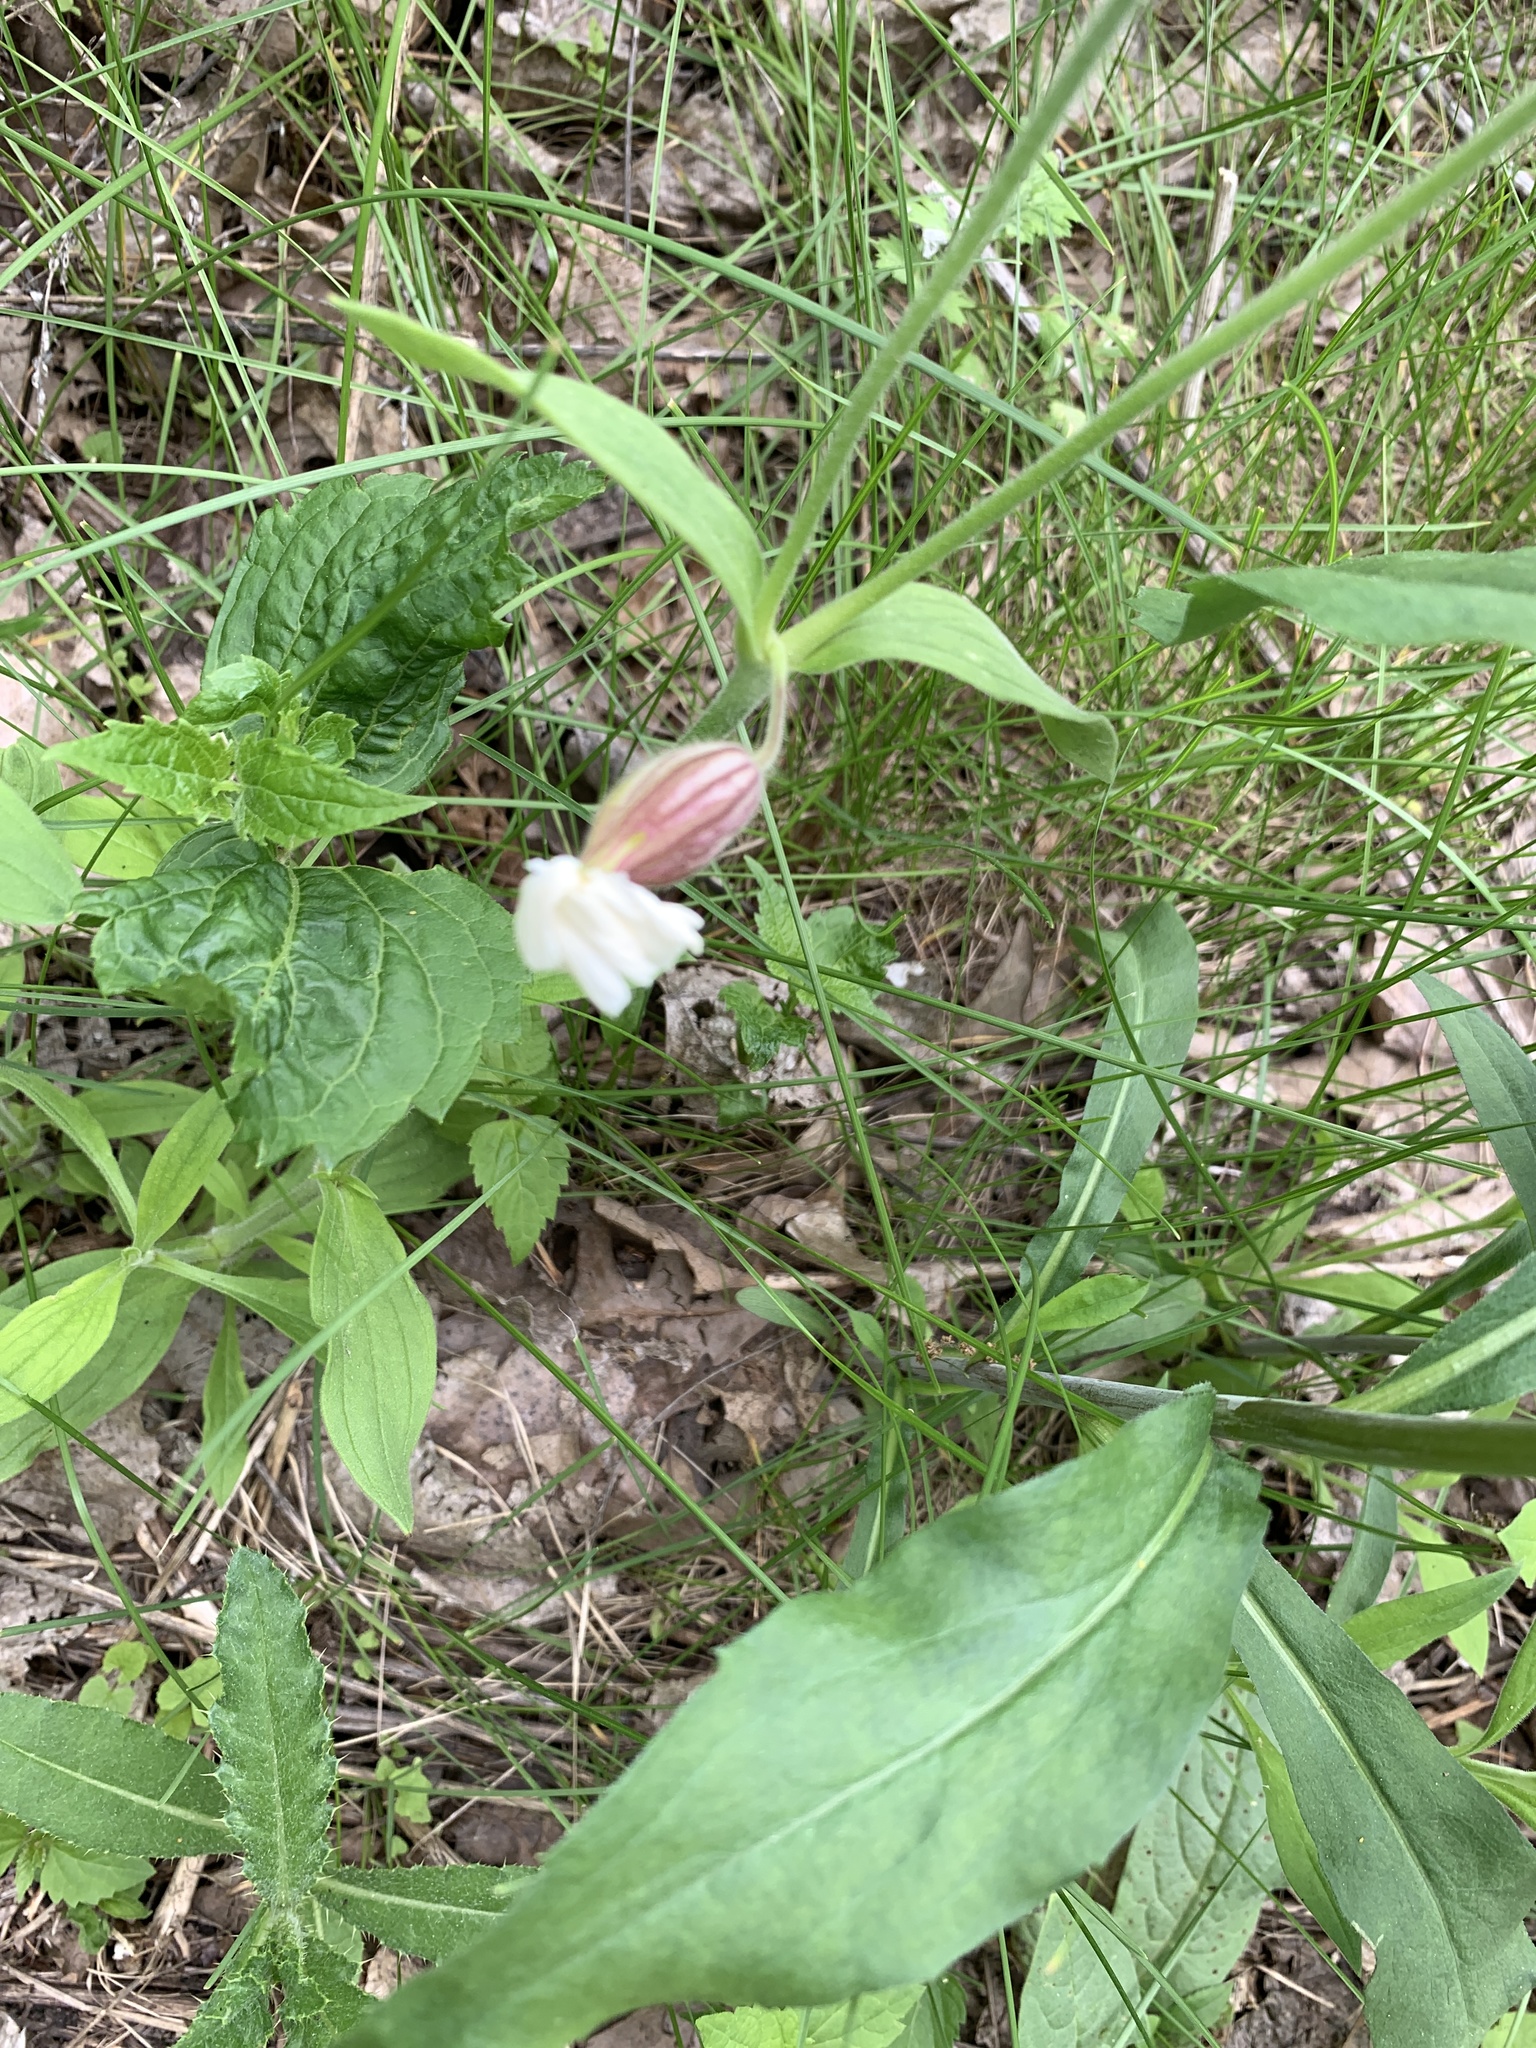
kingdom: Plantae
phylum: Tracheophyta
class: Magnoliopsida
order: Caryophyllales
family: Caryophyllaceae
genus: Silene
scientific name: Silene latifolia
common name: White campion
